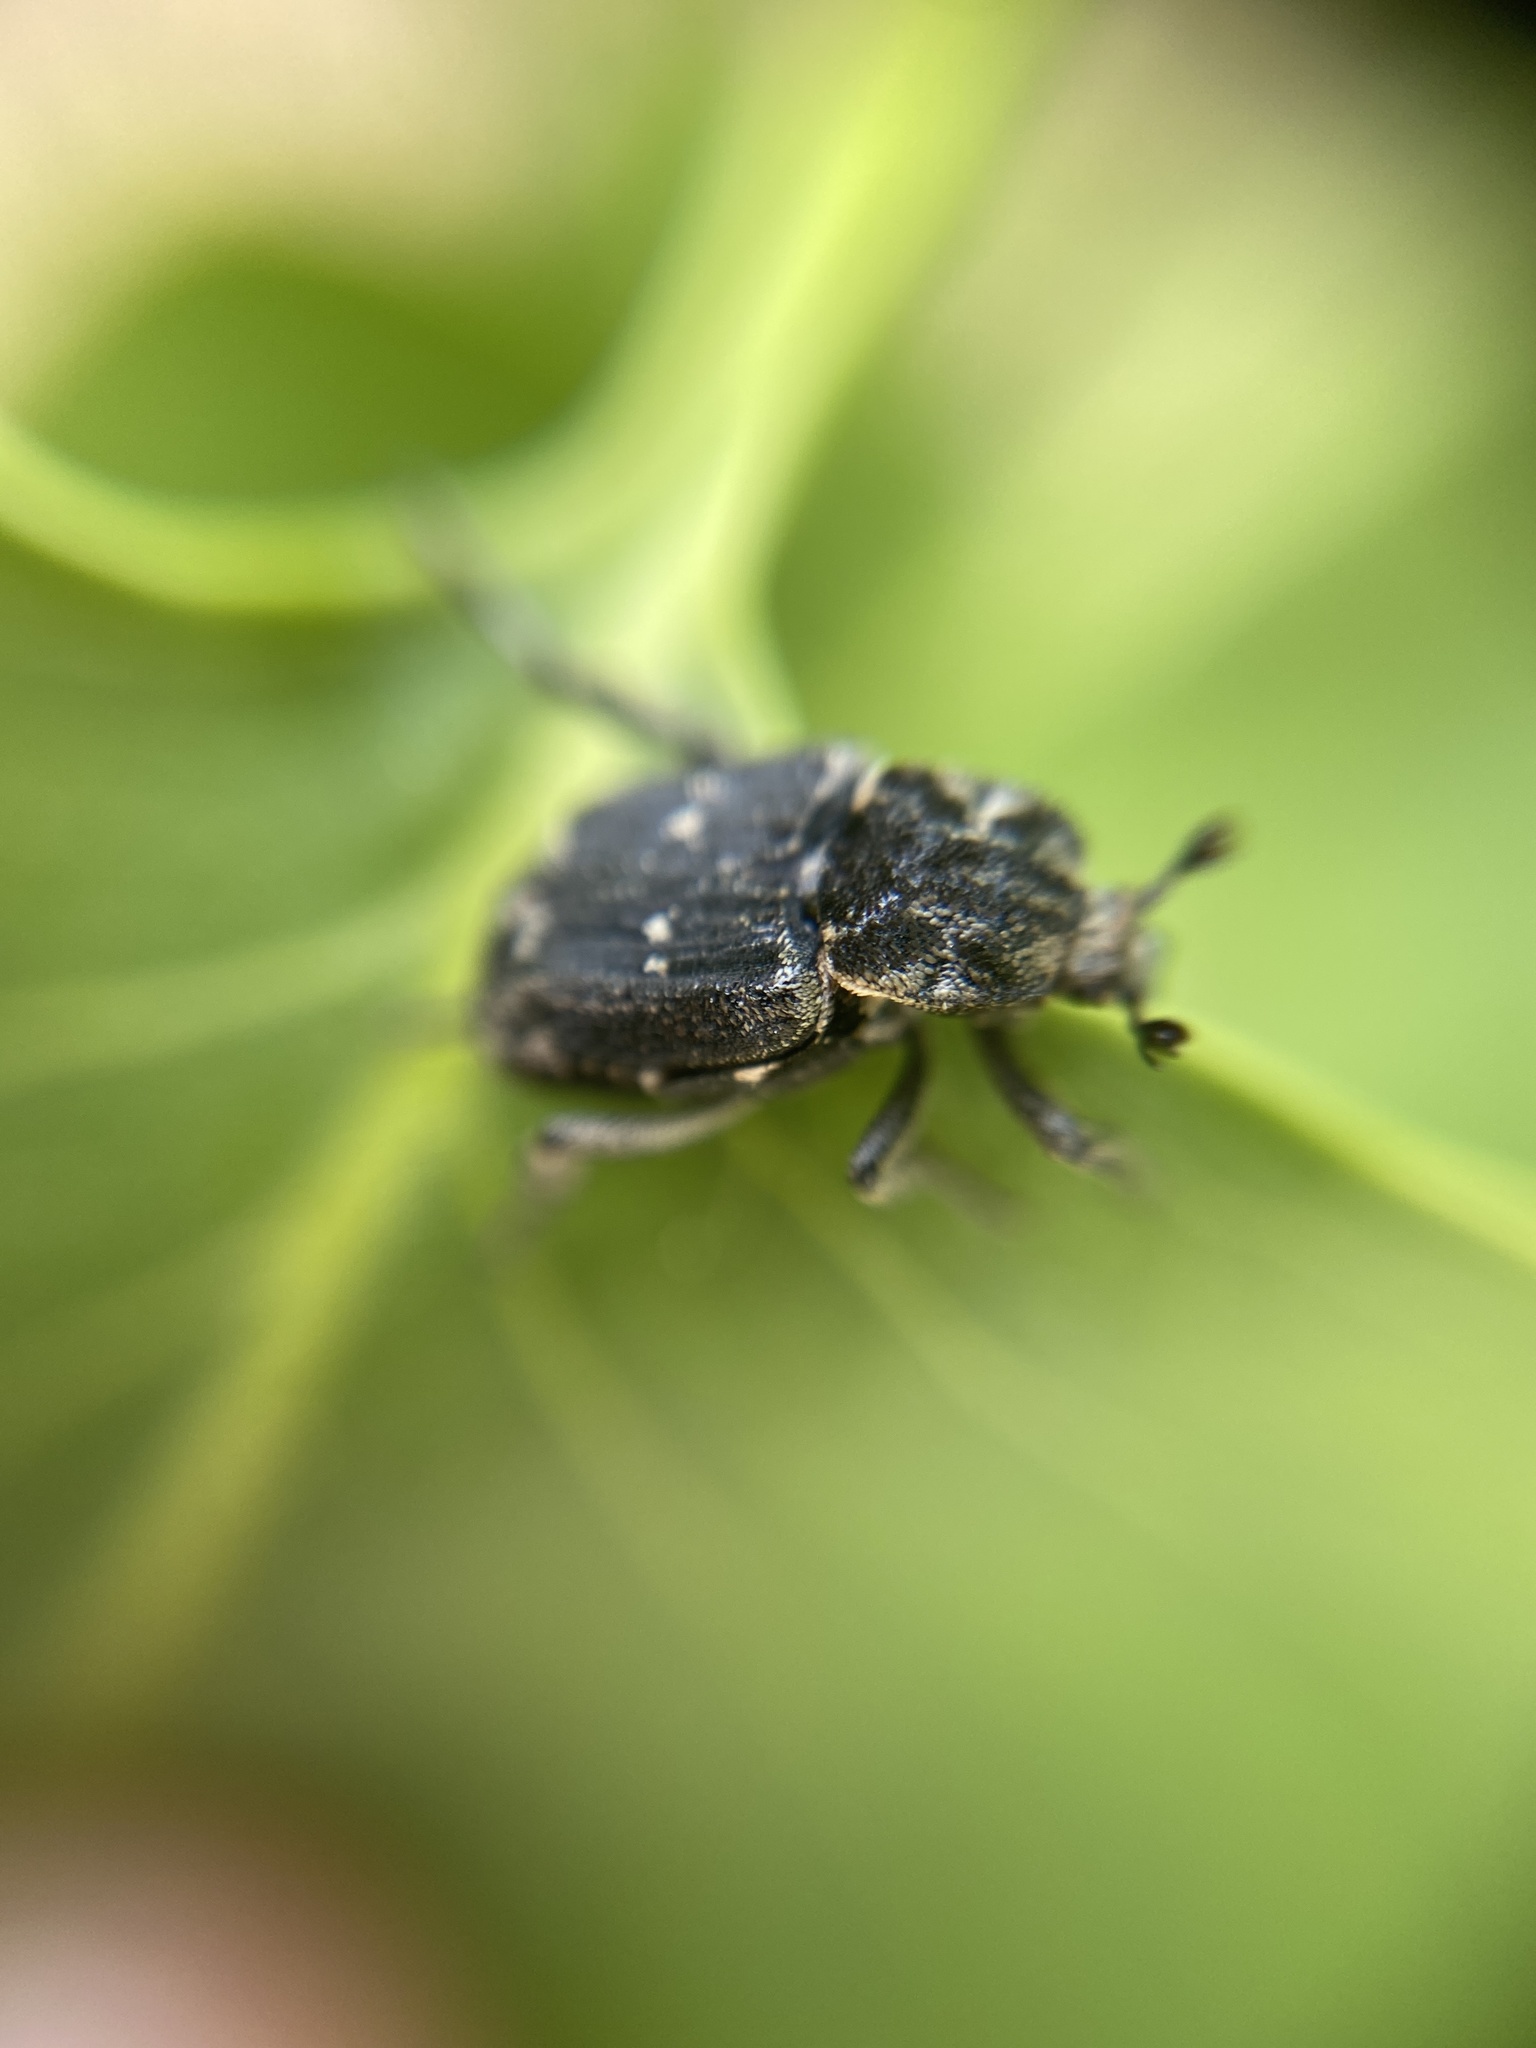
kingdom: Animalia
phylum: Arthropoda
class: Insecta
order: Coleoptera
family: Scarabaeidae
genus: Valgus
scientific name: Valgus hemipterus
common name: Bug flower chafer
